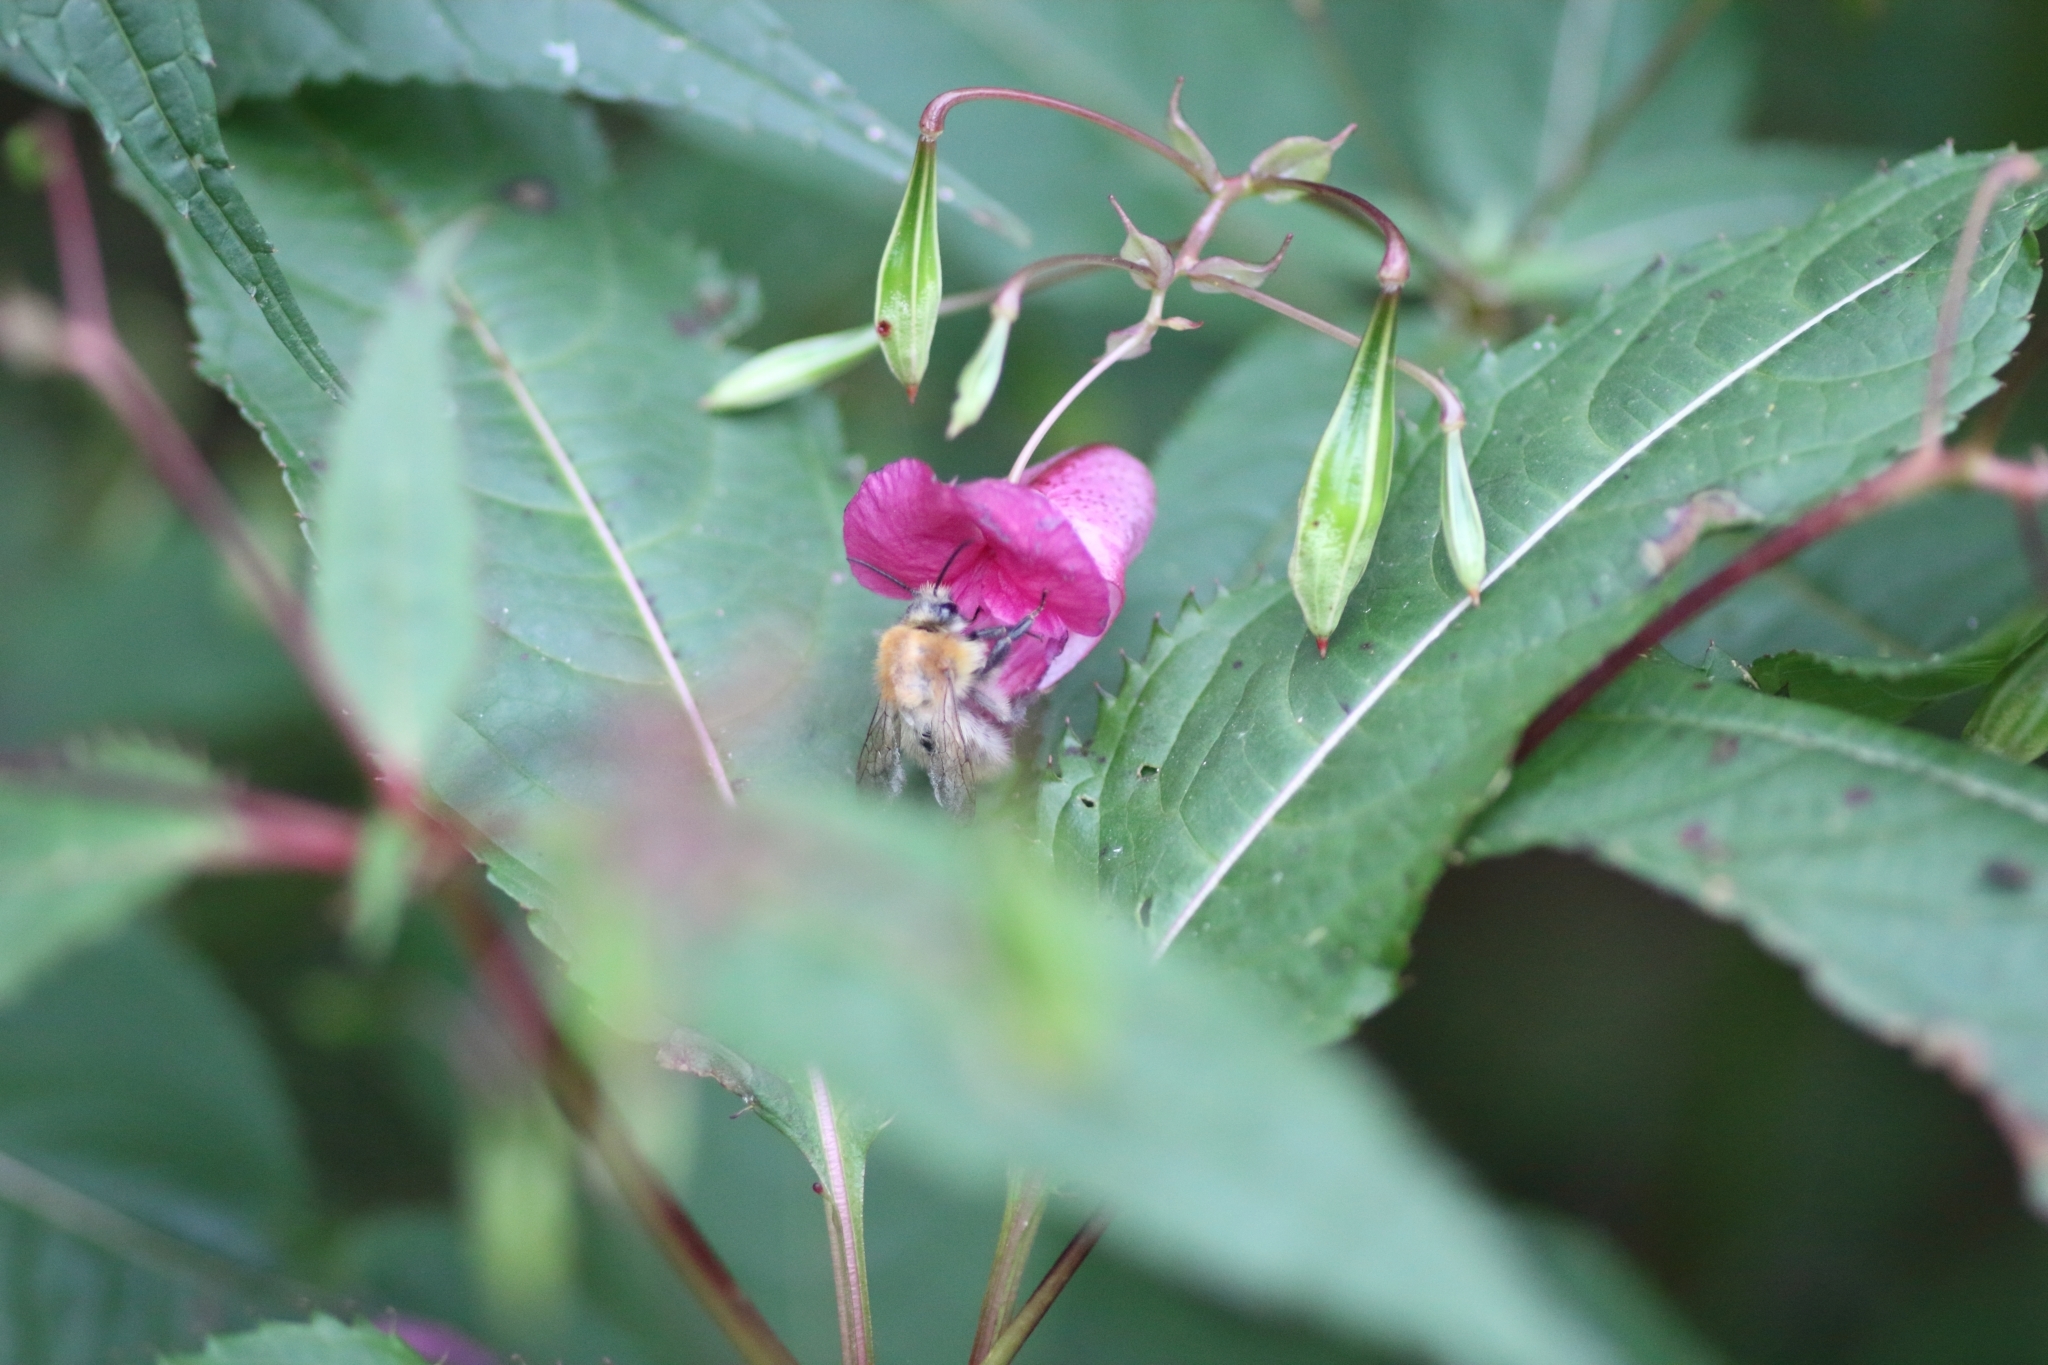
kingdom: Animalia
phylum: Arthropoda
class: Insecta
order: Hymenoptera
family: Apidae
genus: Bombus
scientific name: Bombus pascuorum
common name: Common carder bee
